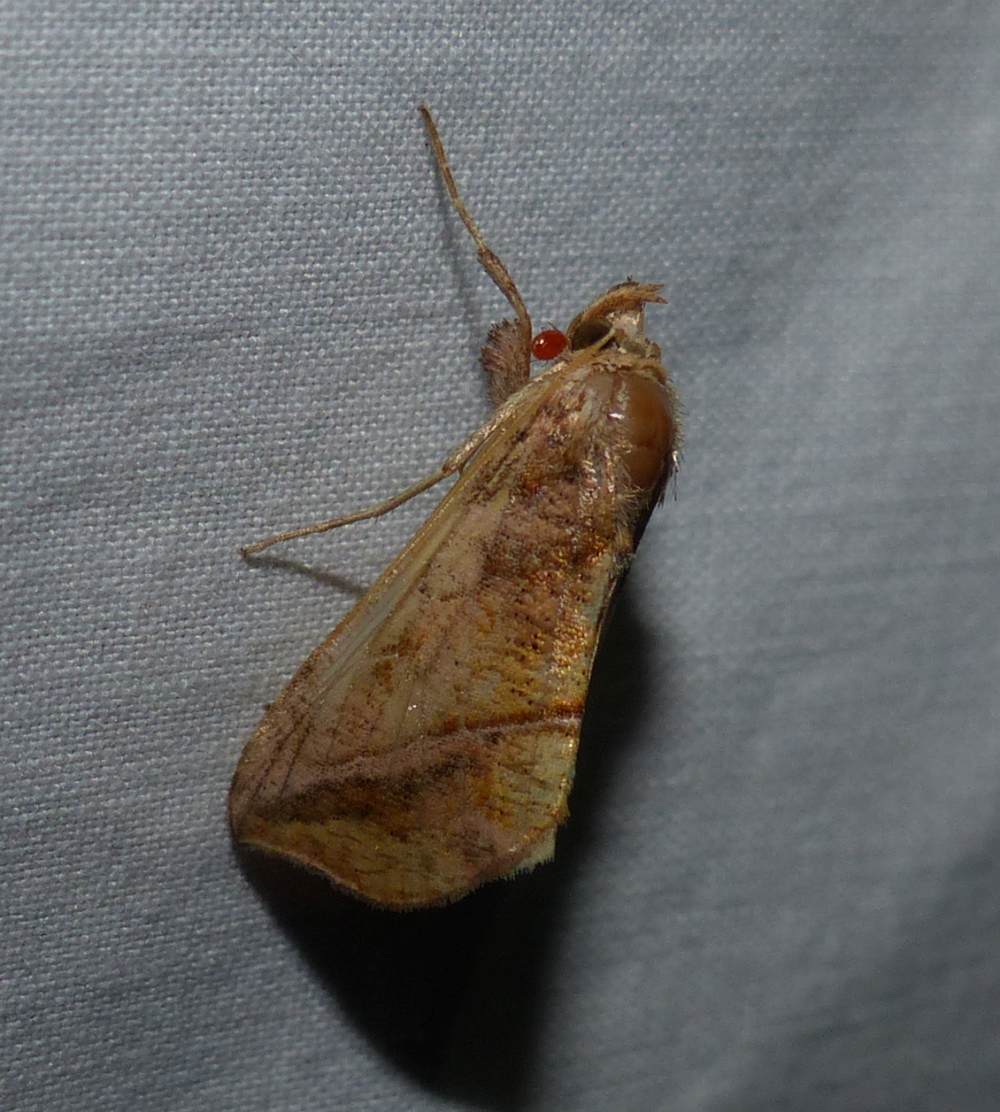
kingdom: Animalia
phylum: Arthropoda
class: Insecta
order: Lepidoptera
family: Noctuidae
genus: Pseudeva
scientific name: Pseudeva purpurigera
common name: Straight-lined looper moth
